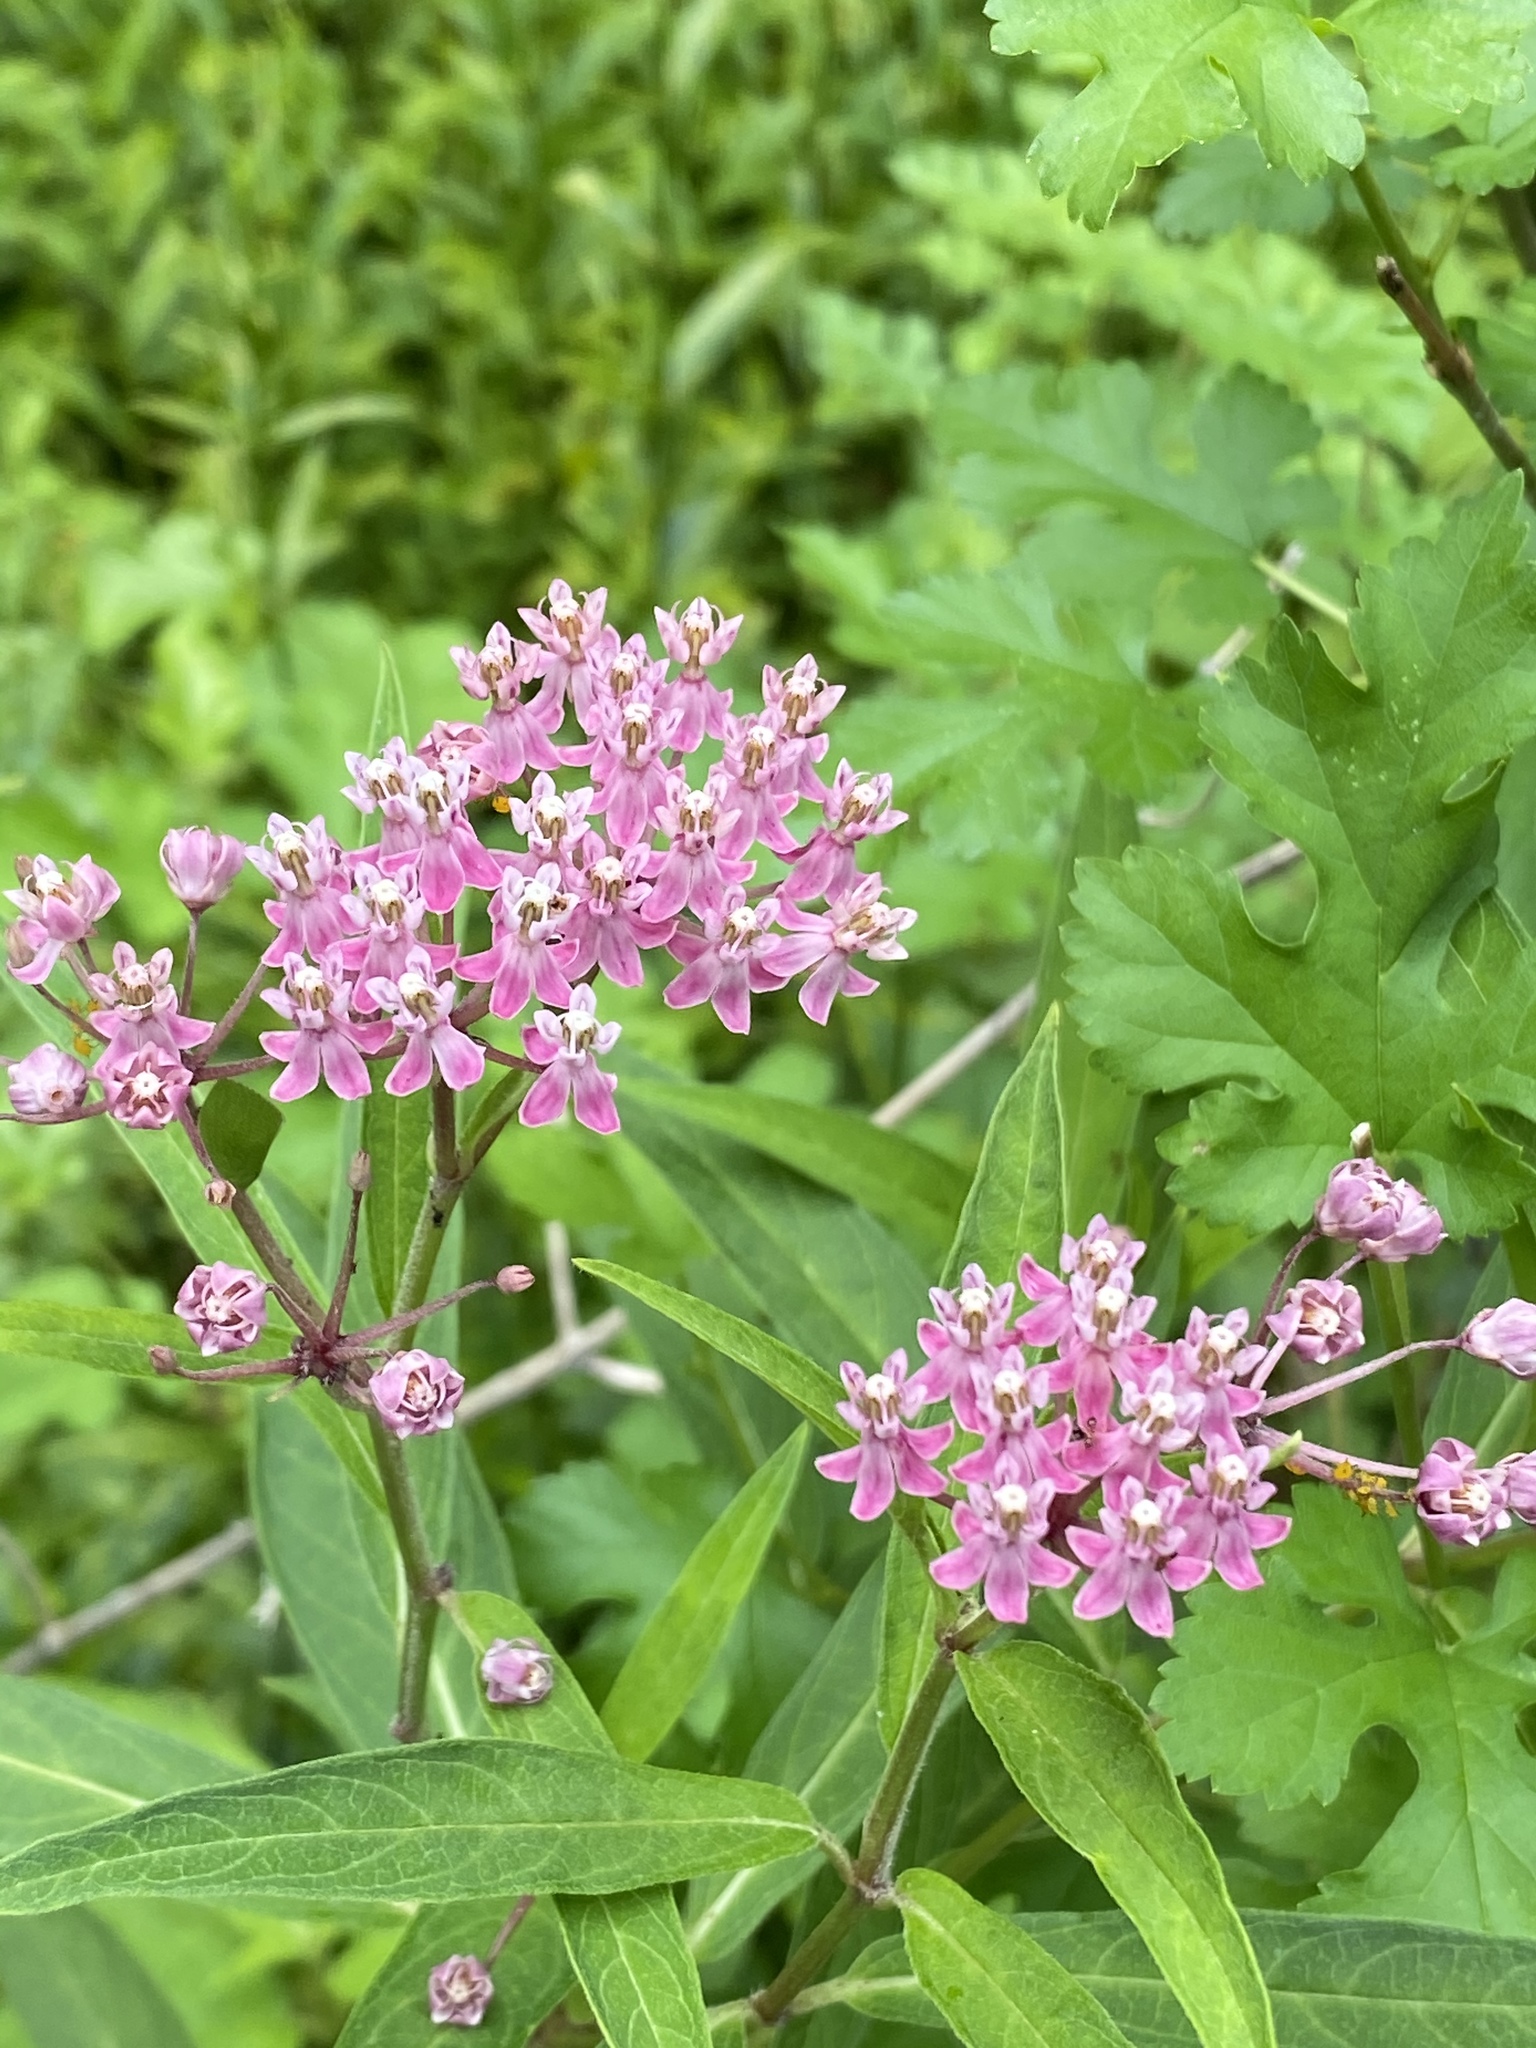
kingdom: Plantae
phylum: Tracheophyta
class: Magnoliopsida
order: Gentianales
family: Apocynaceae
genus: Asclepias
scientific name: Asclepias incarnata
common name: Swamp milkweed
